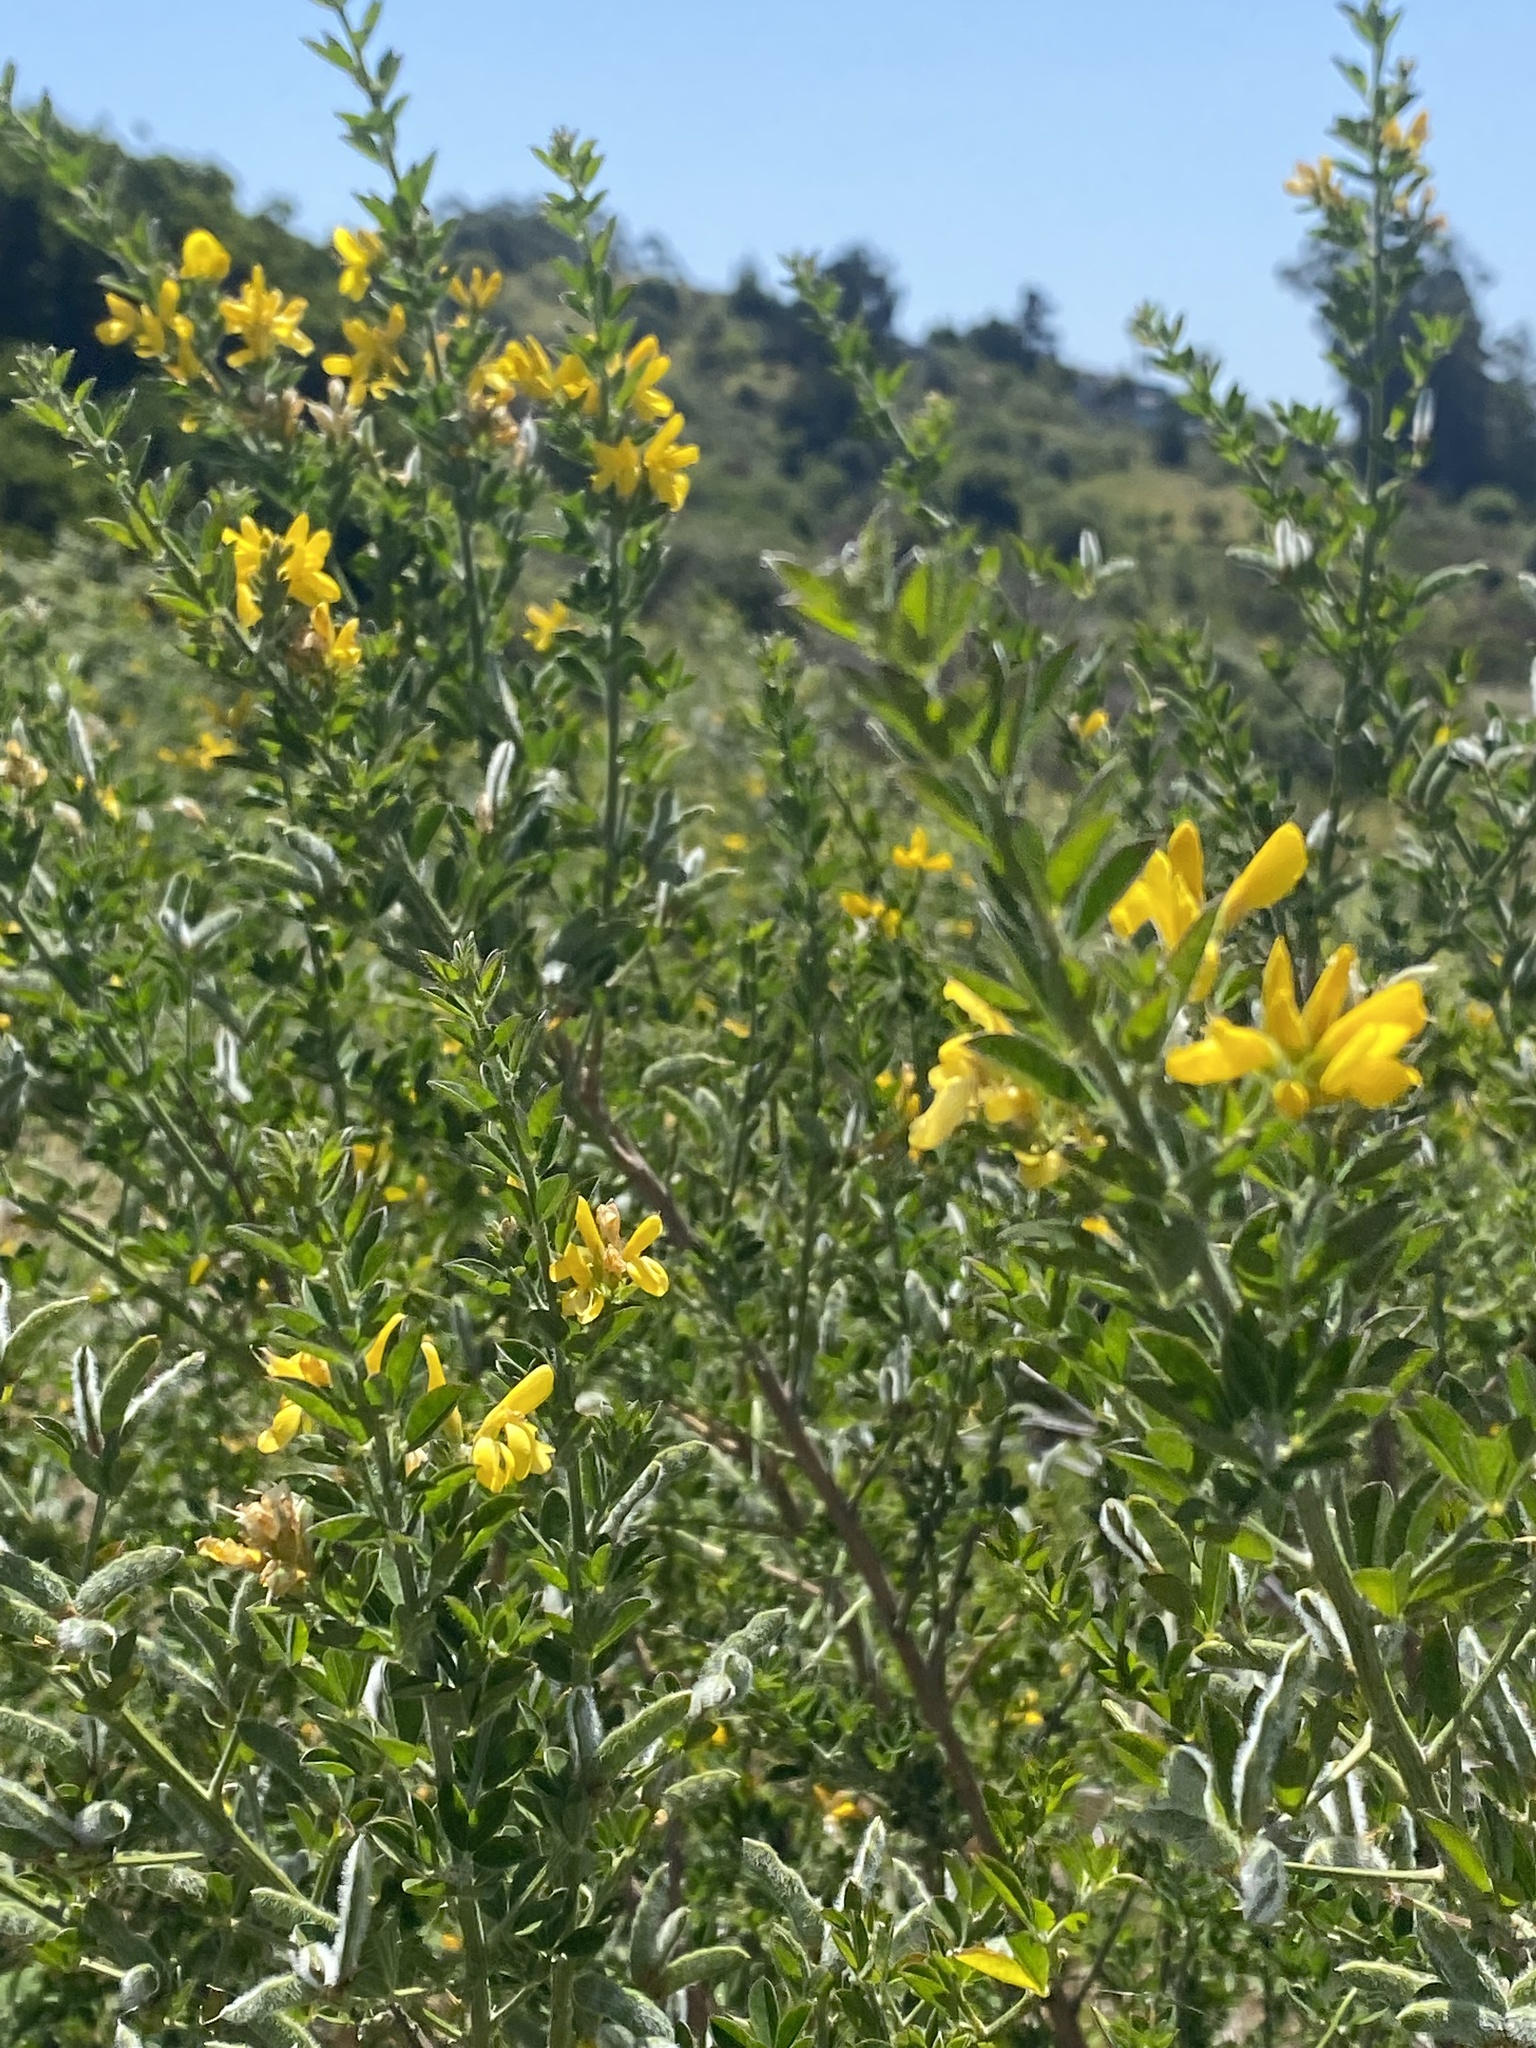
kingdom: Plantae
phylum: Tracheophyta
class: Magnoliopsida
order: Fabales
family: Fabaceae
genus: Genista
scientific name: Genista monspessulana
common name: Montpellier broom
